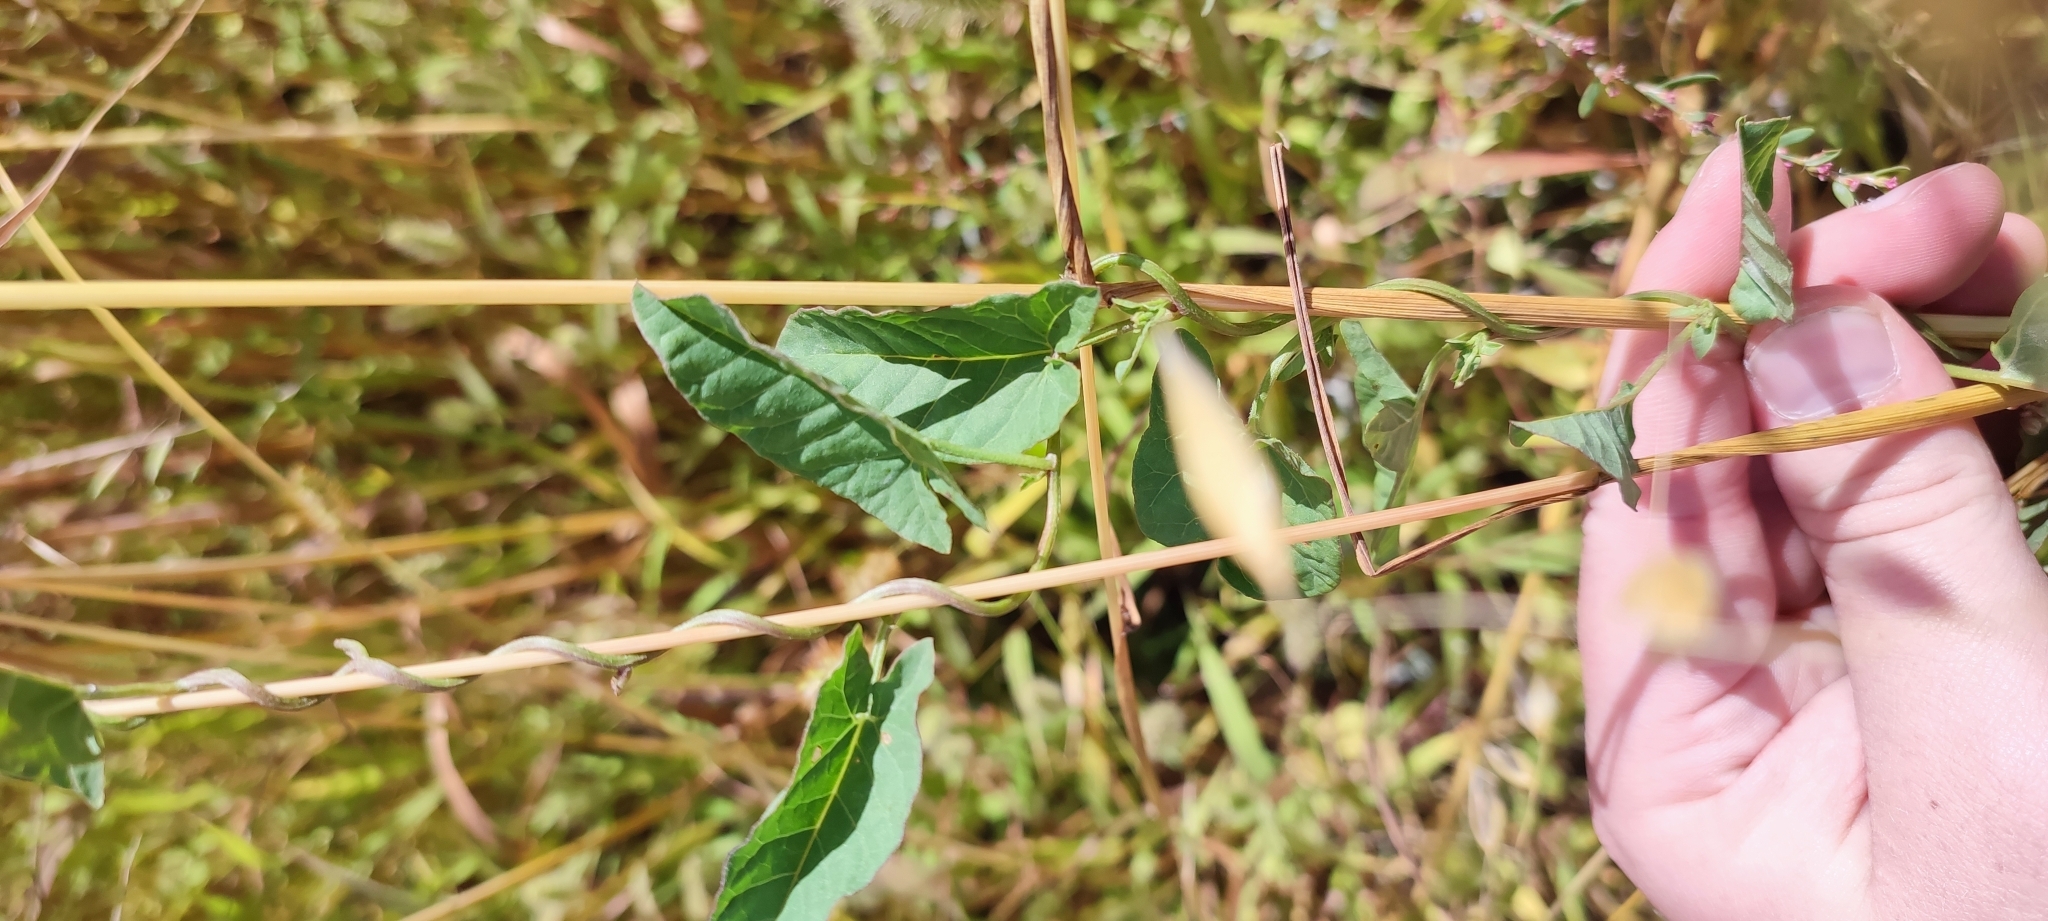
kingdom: Plantae
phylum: Tracheophyta
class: Magnoliopsida
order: Solanales
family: Convolvulaceae
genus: Convolvulus
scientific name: Convolvulus arvensis
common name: Field bindweed
